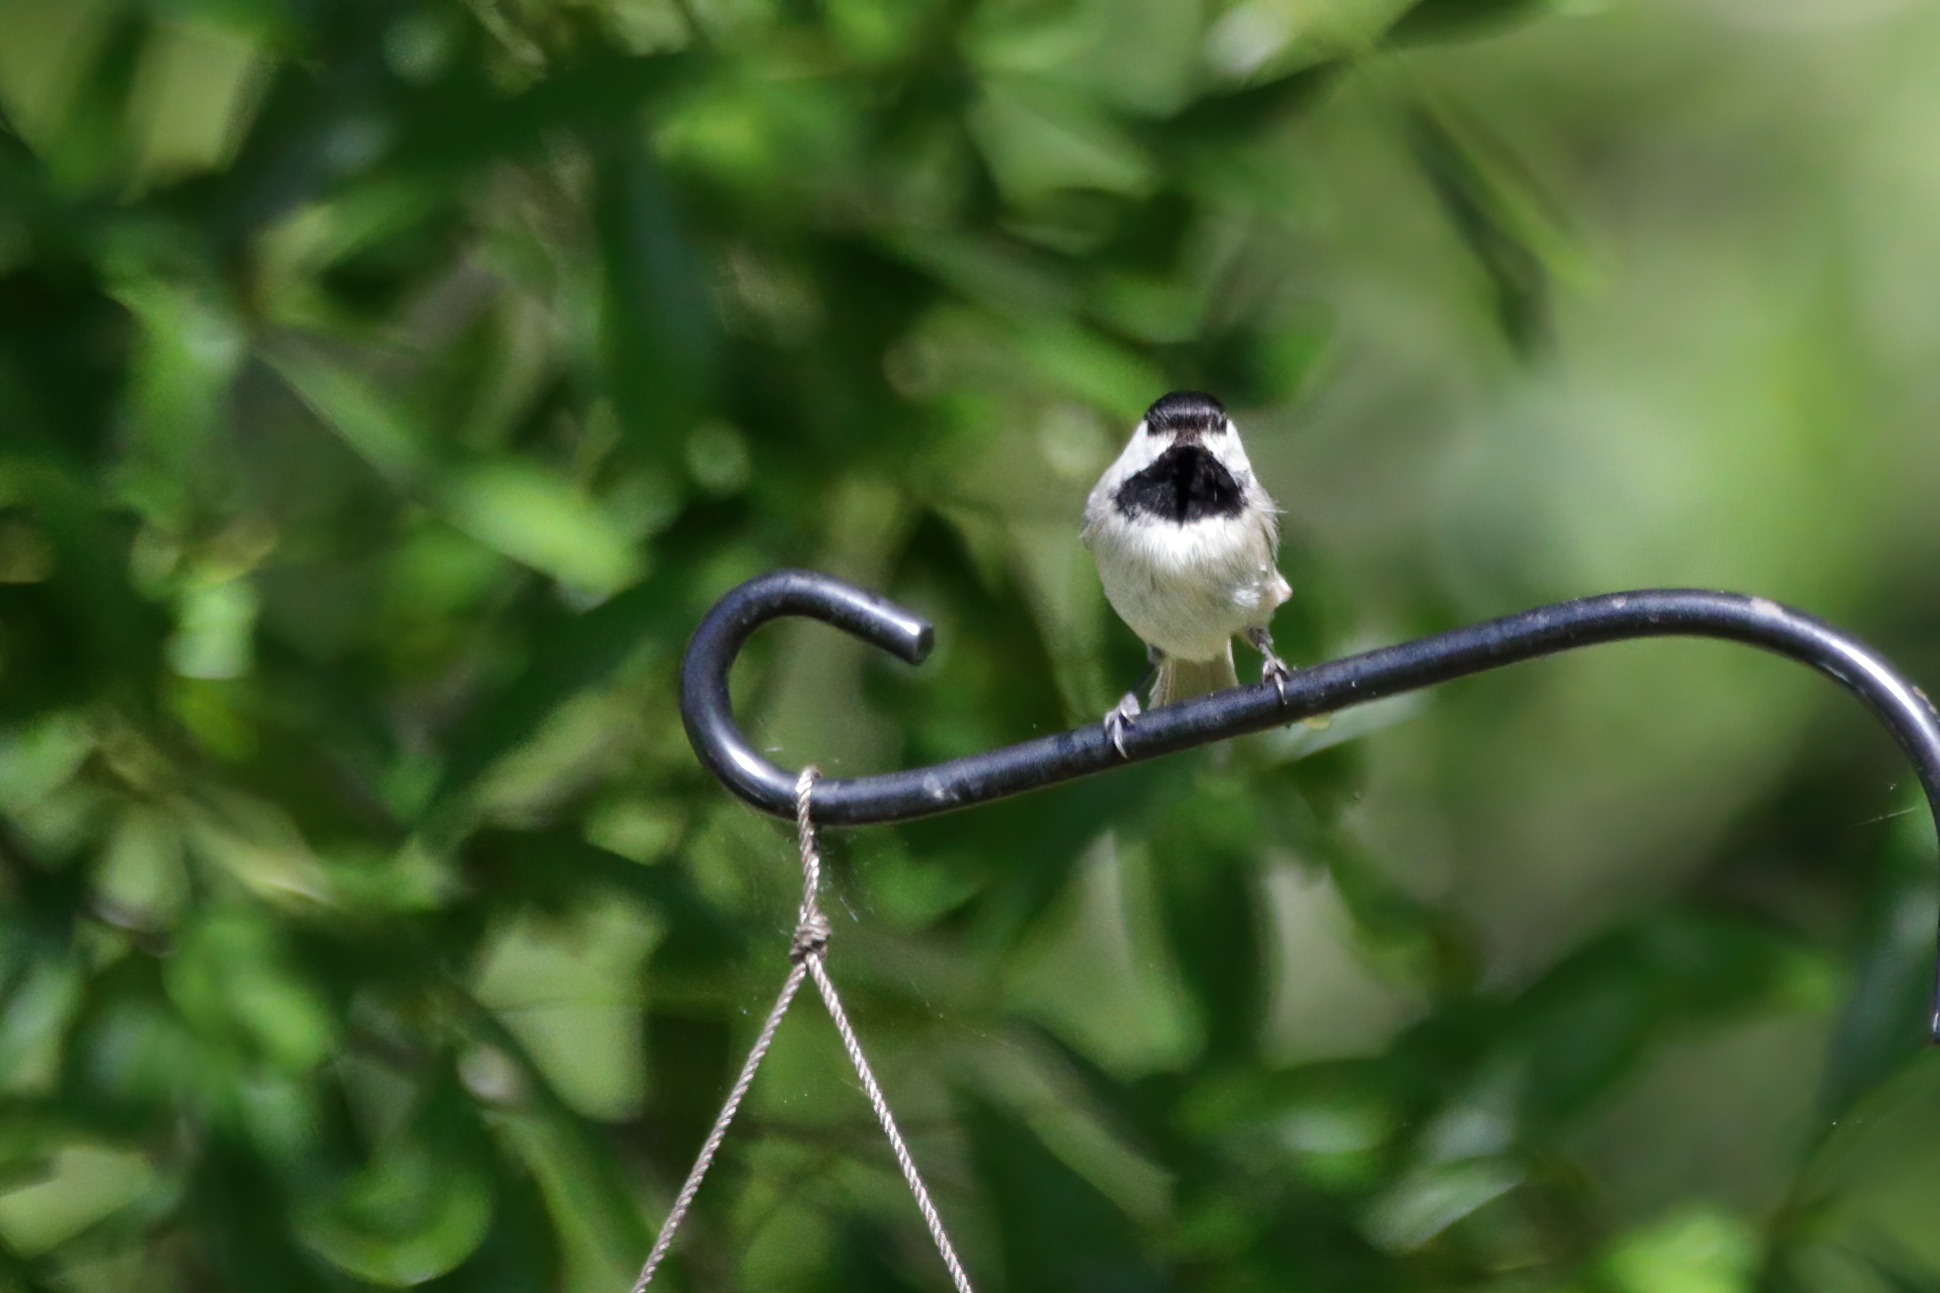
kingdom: Animalia
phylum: Chordata
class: Aves
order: Passeriformes
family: Paridae
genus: Poecile
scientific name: Poecile carolinensis
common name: Carolina chickadee
